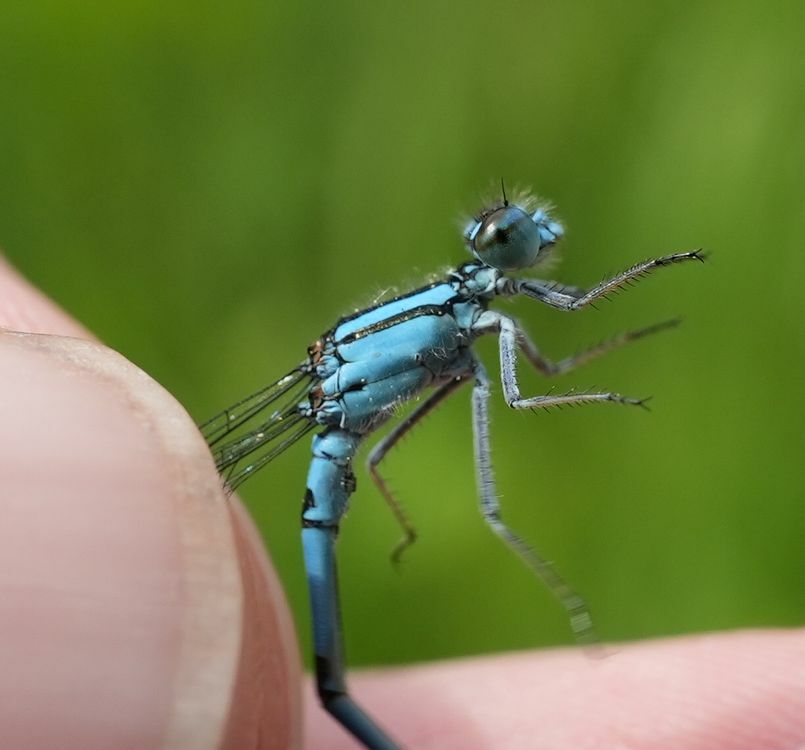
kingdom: Animalia
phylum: Arthropoda
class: Insecta
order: Odonata
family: Coenagrionidae
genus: Enallagma
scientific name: Enallagma ebrium
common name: Marsh bluet
